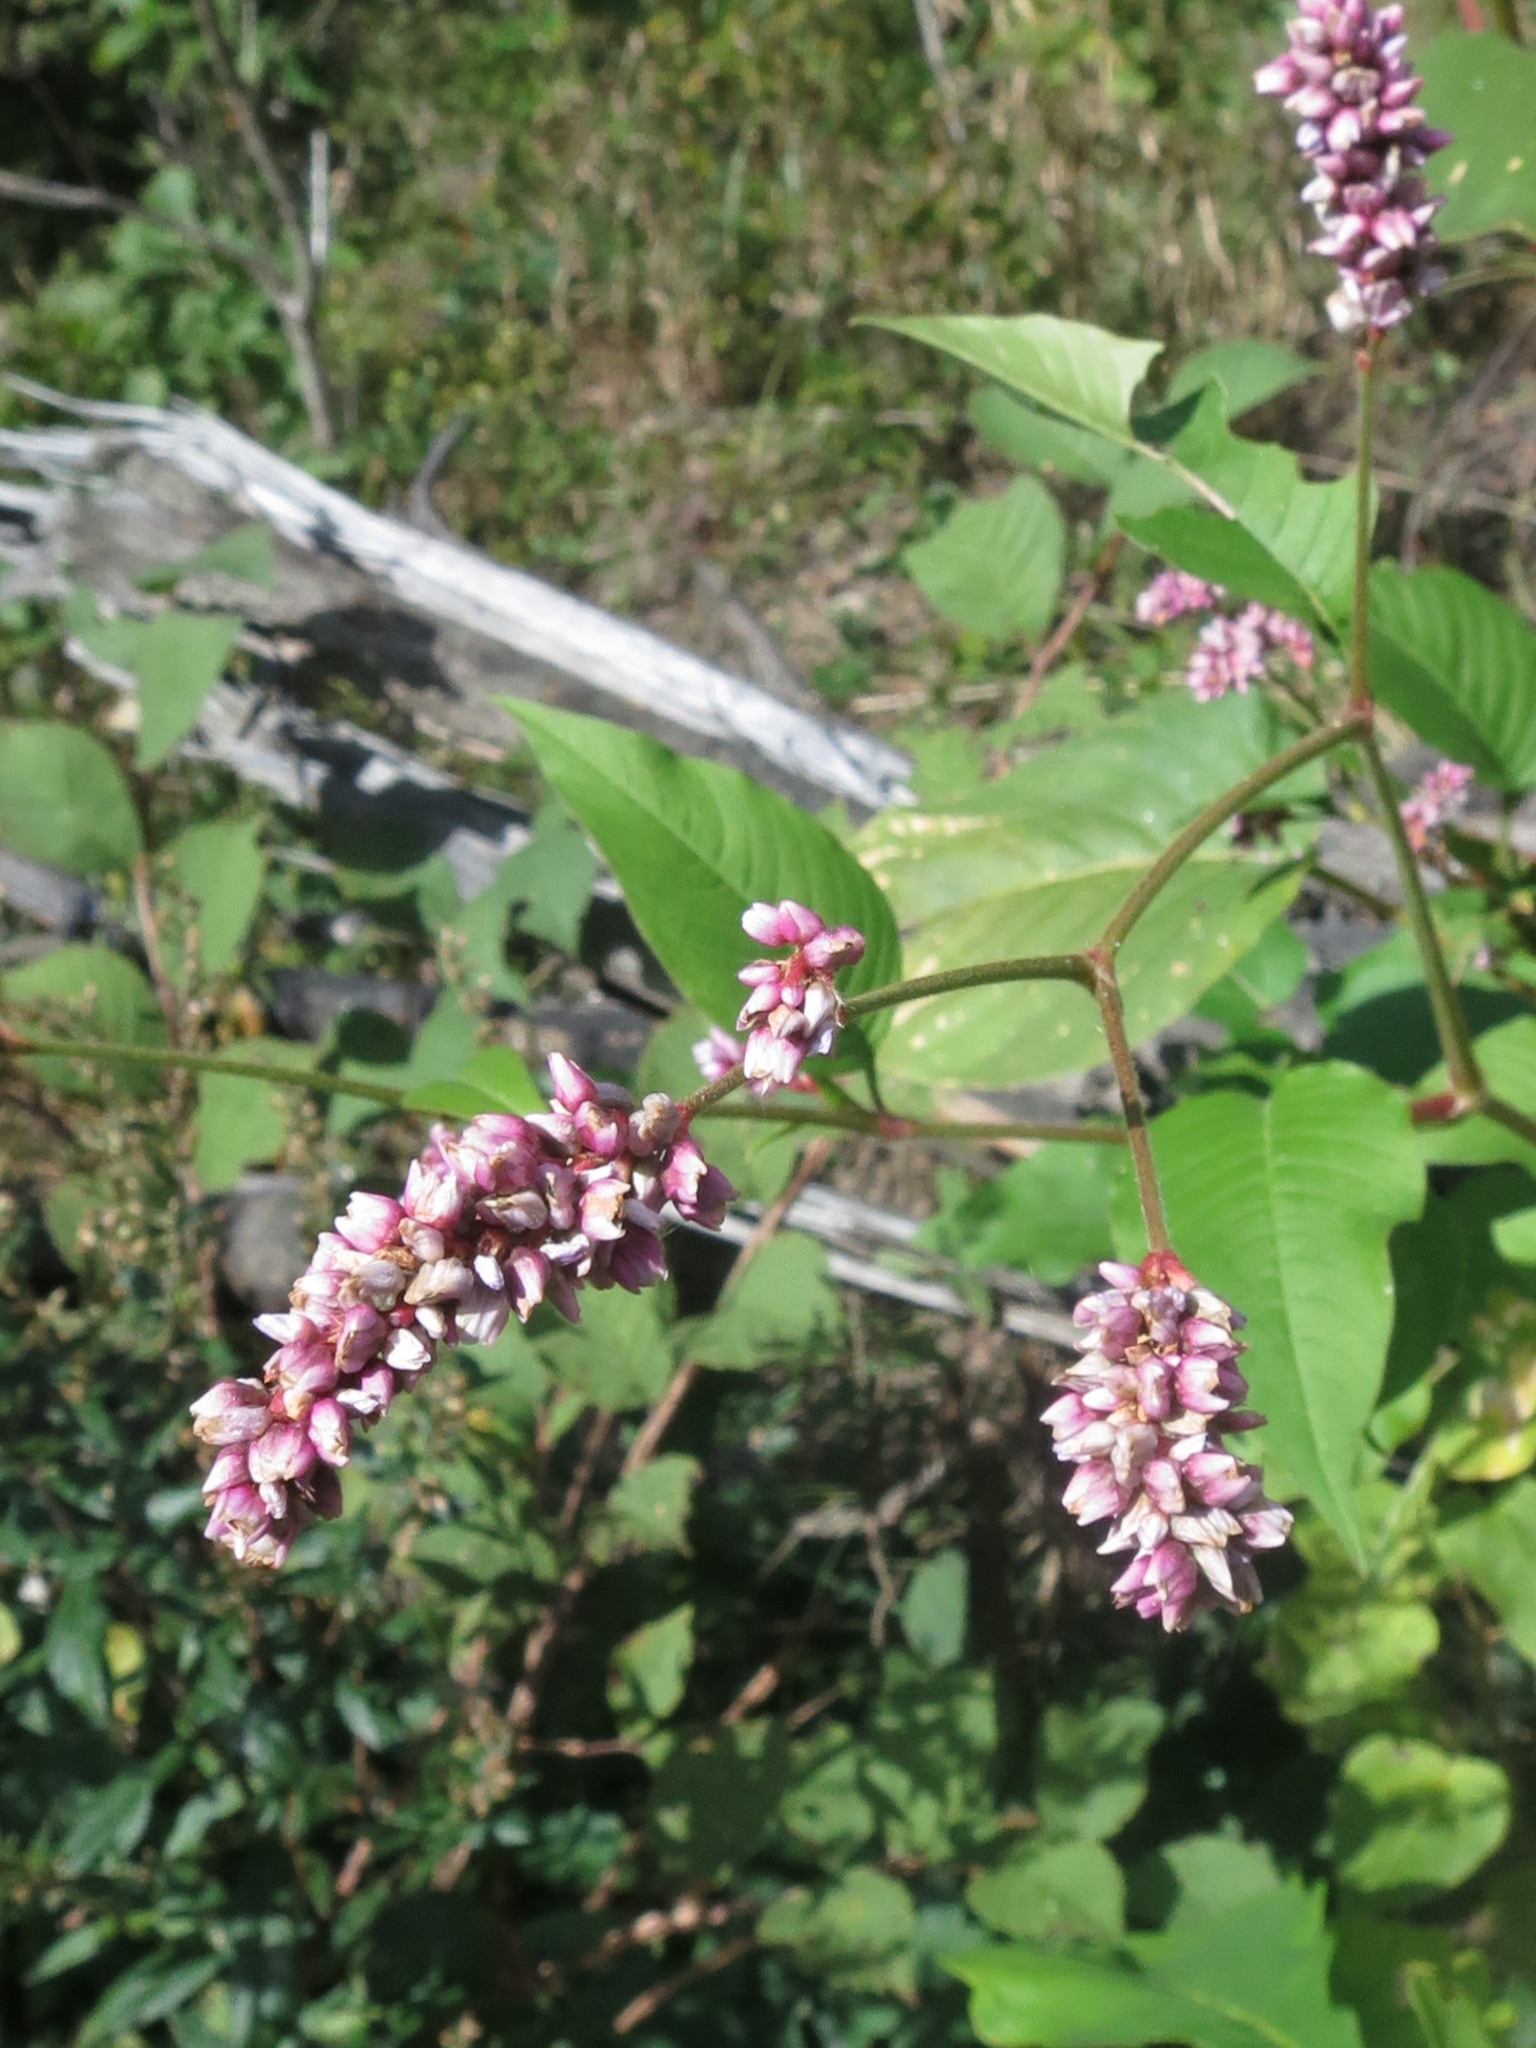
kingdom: Plantae
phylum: Tracheophyta
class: Magnoliopsida
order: Caryophyllales
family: Polygonaceae
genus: Persicaria
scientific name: Persicaria orientalis
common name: Kiss-me-over-the-garden-gate
